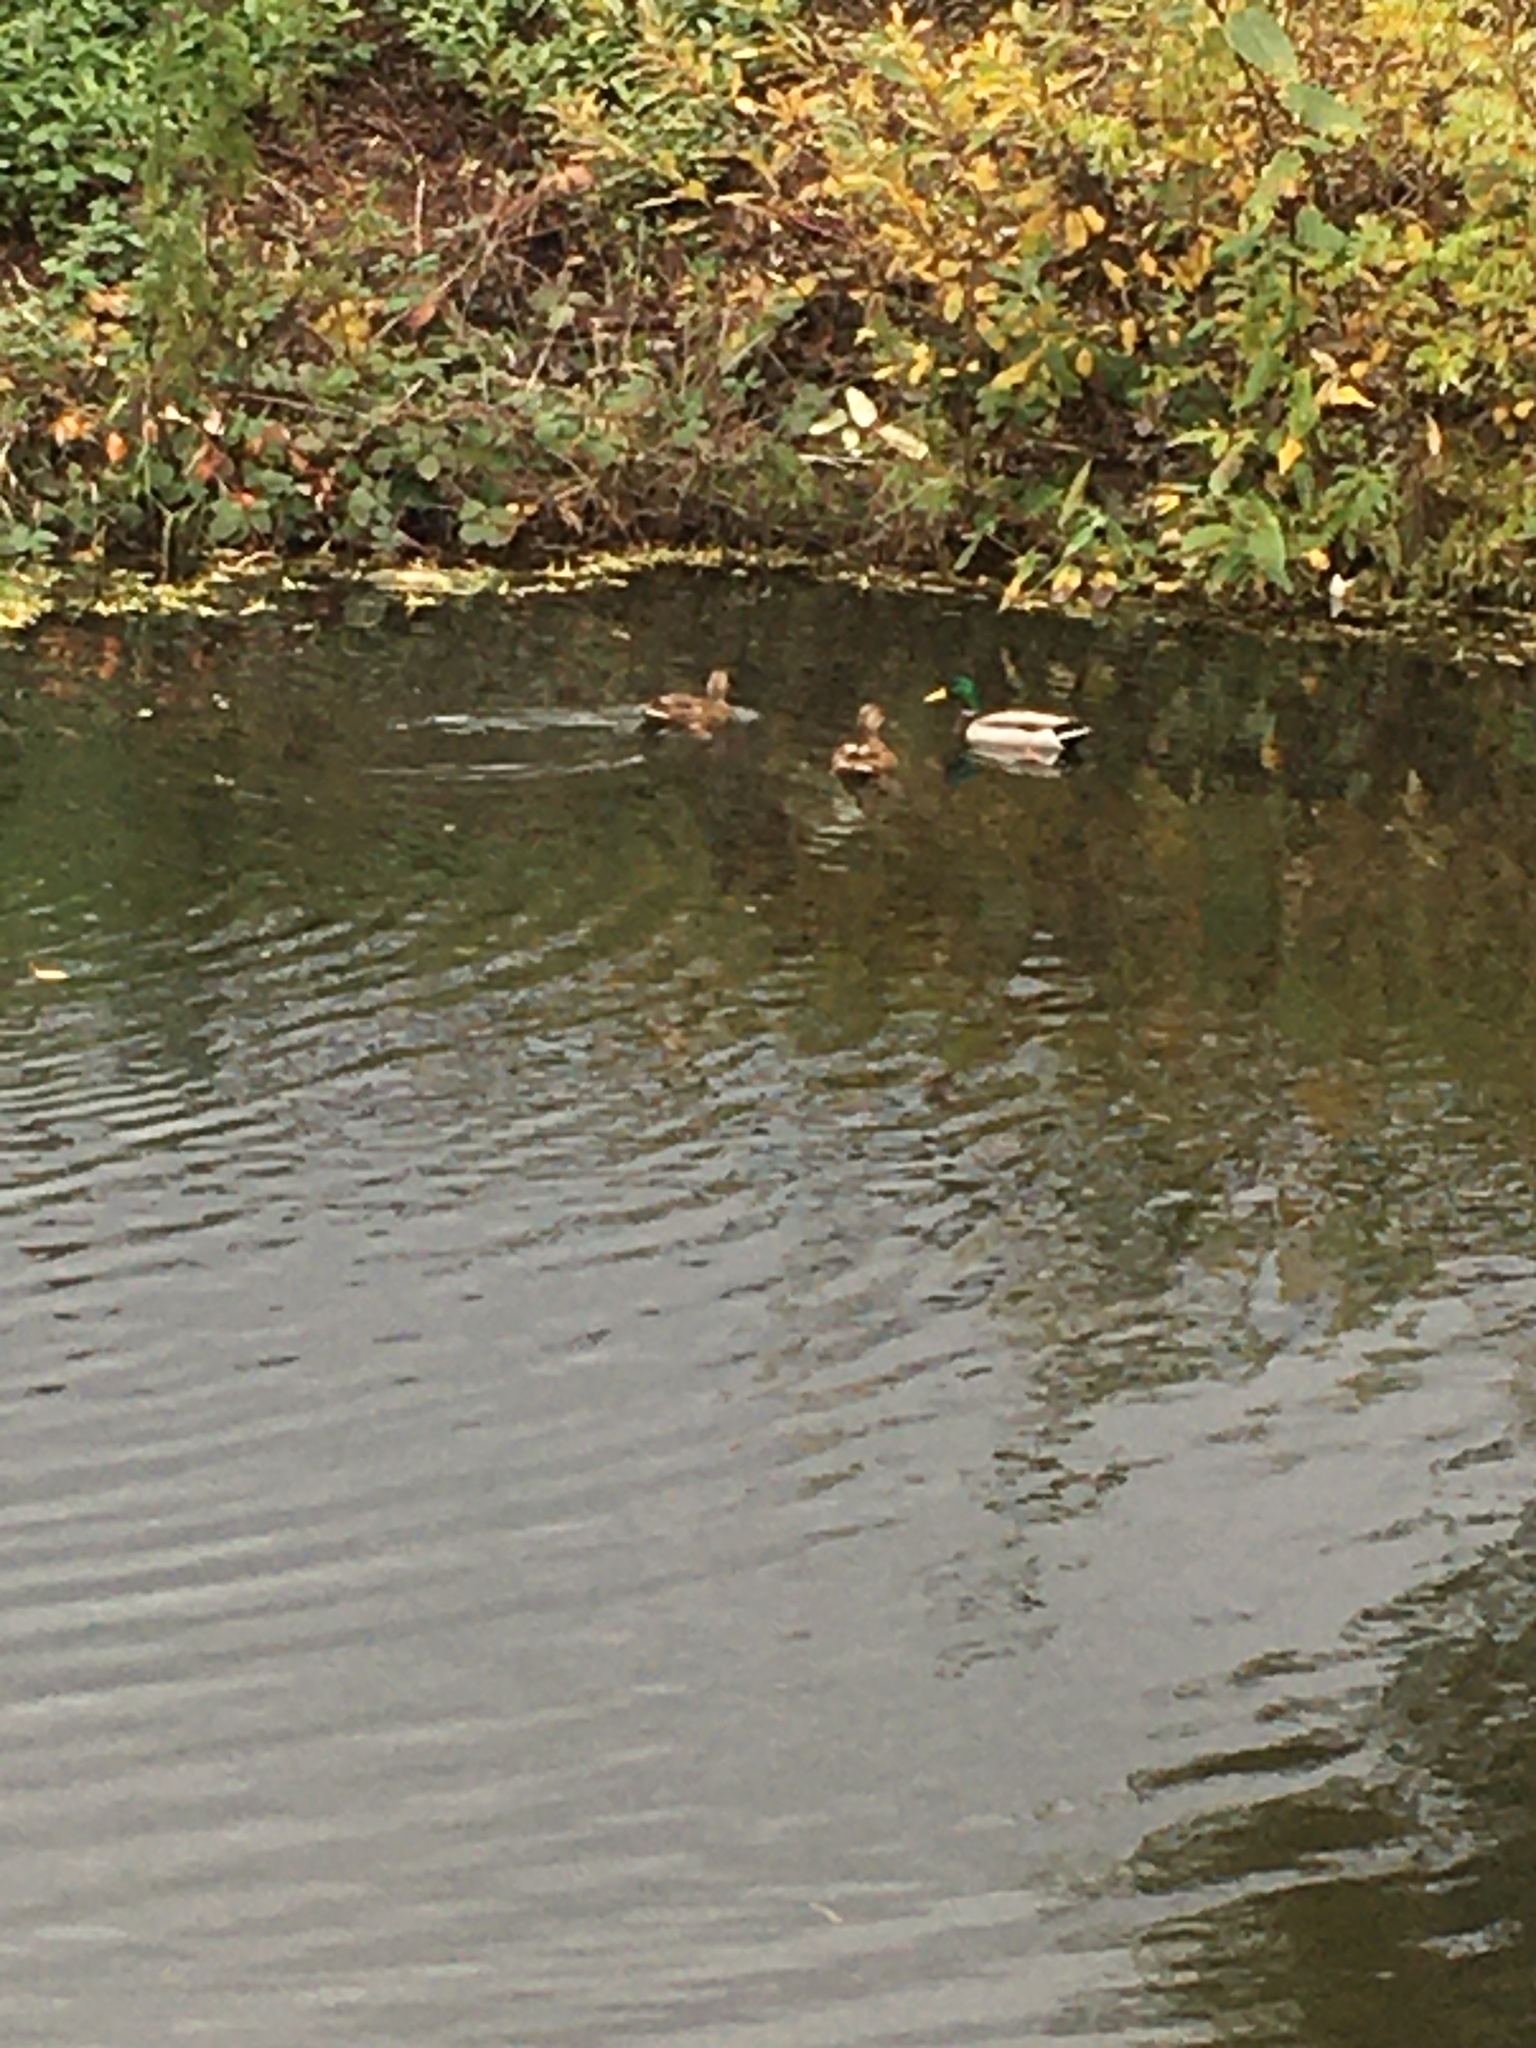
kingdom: Animalia
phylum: Chordata
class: Aves
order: Anseriformes
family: Anatidae
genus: Anas
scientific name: Anas platyrhynchos
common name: Mallard
